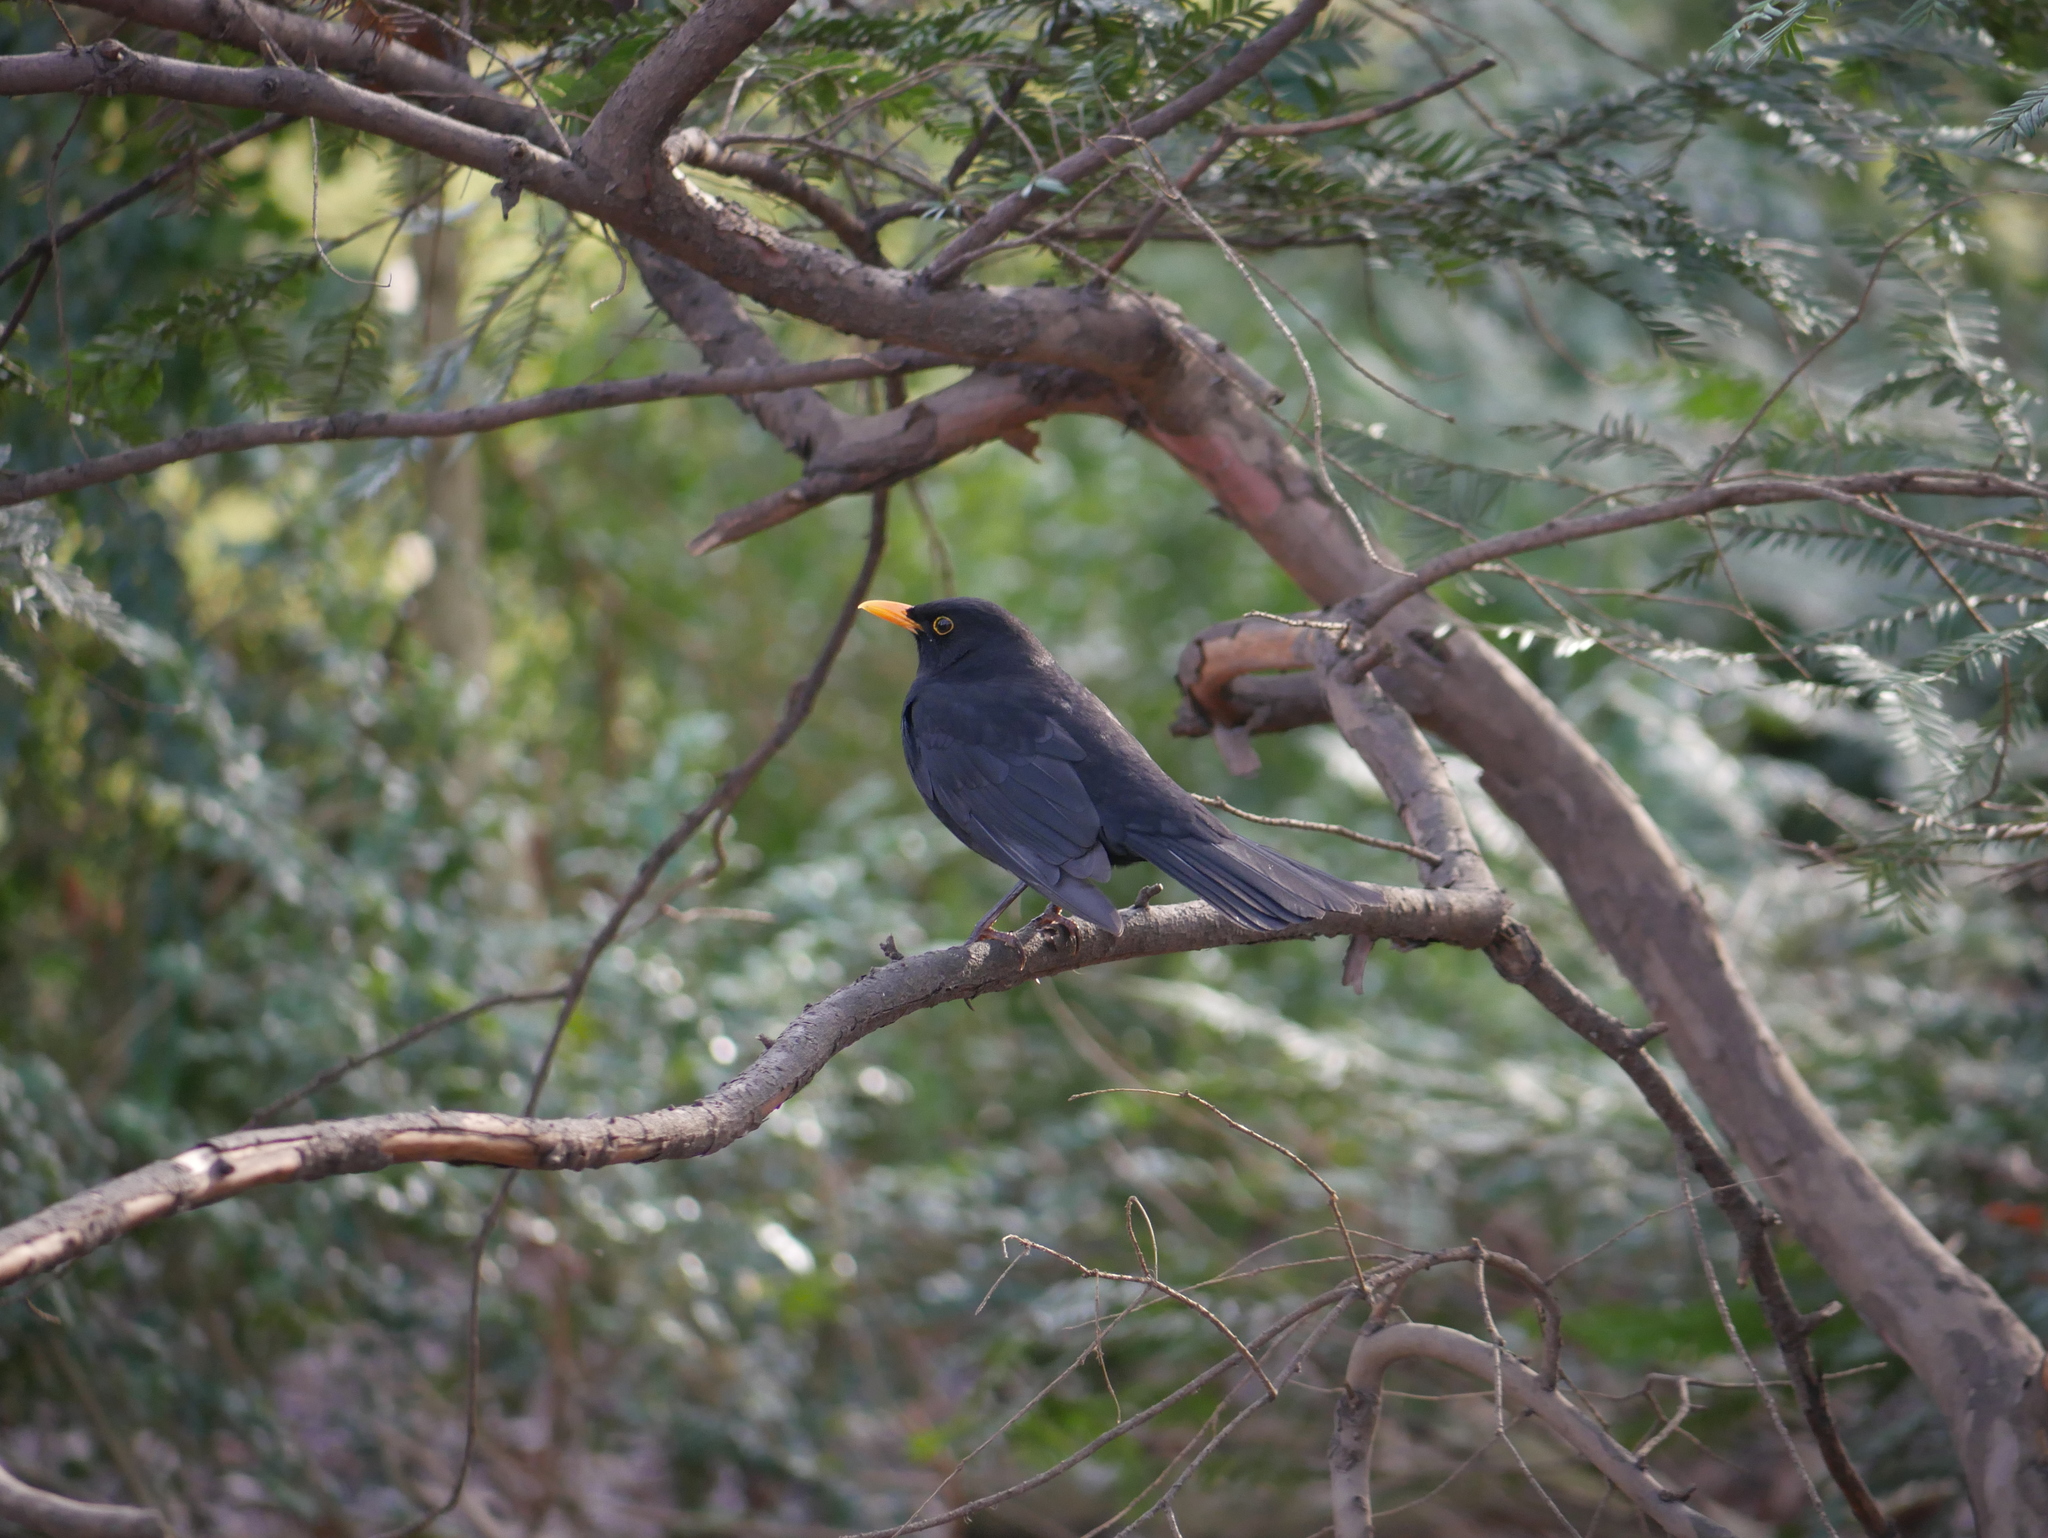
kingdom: Animalia
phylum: Chordata
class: Aves
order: Passeriformes
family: Turdidae
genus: Turdus
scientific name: Turdus merula
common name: Common blackbird
